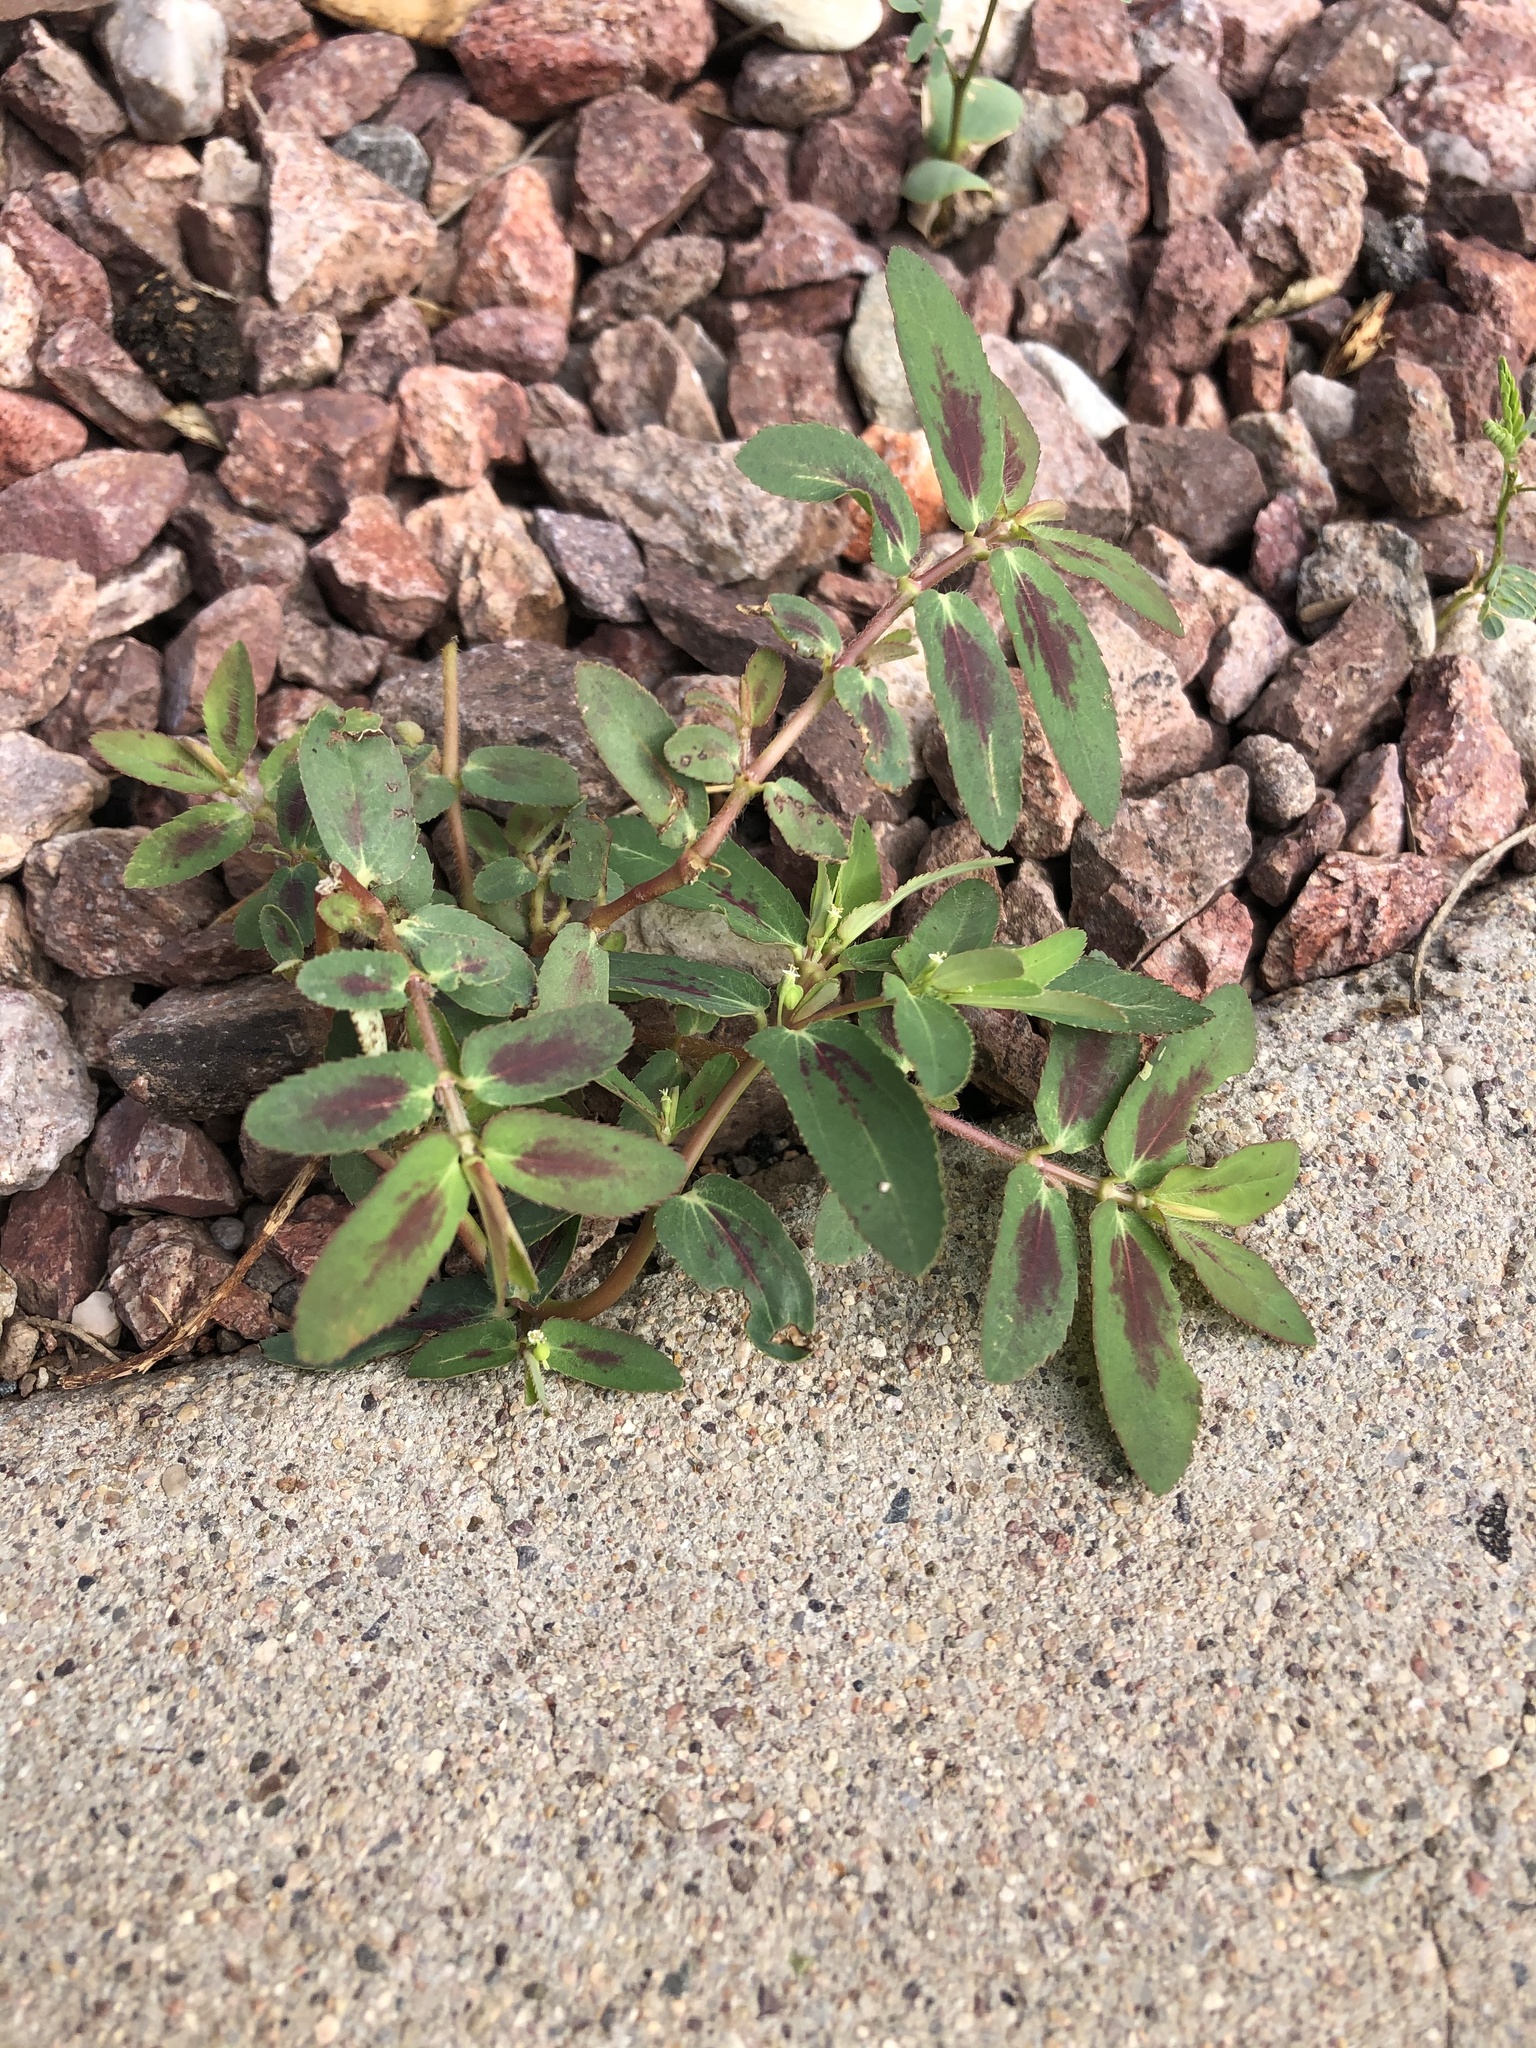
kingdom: Plantae
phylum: Tracheophyta
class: Magnoliopsida
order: Malpighiales
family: Euphorbiaceae
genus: Euphorbia
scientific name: Euphorbia hyssopifolia
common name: Hyssopleaf sandmat
